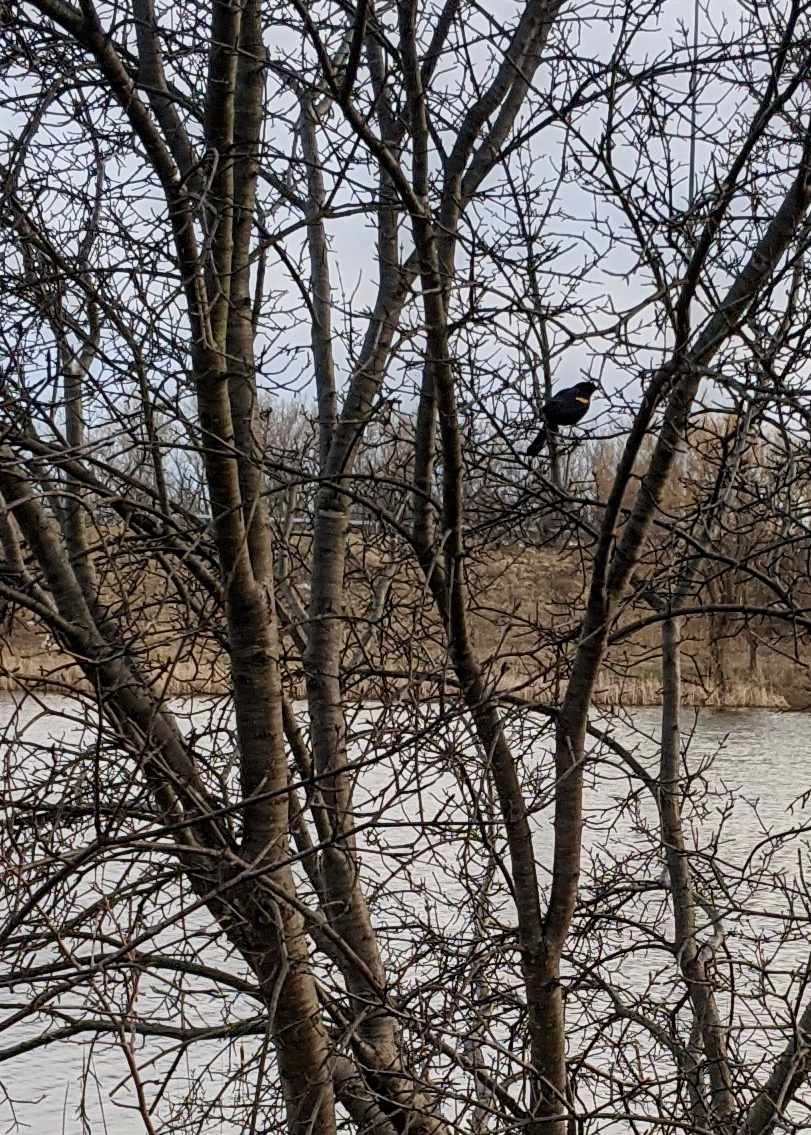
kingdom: Animalia
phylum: Chordata
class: Aves
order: Passeriformes
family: Icteridae
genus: Agelaius
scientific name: Agelaius phoeniceus
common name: Red-winged blackbird
